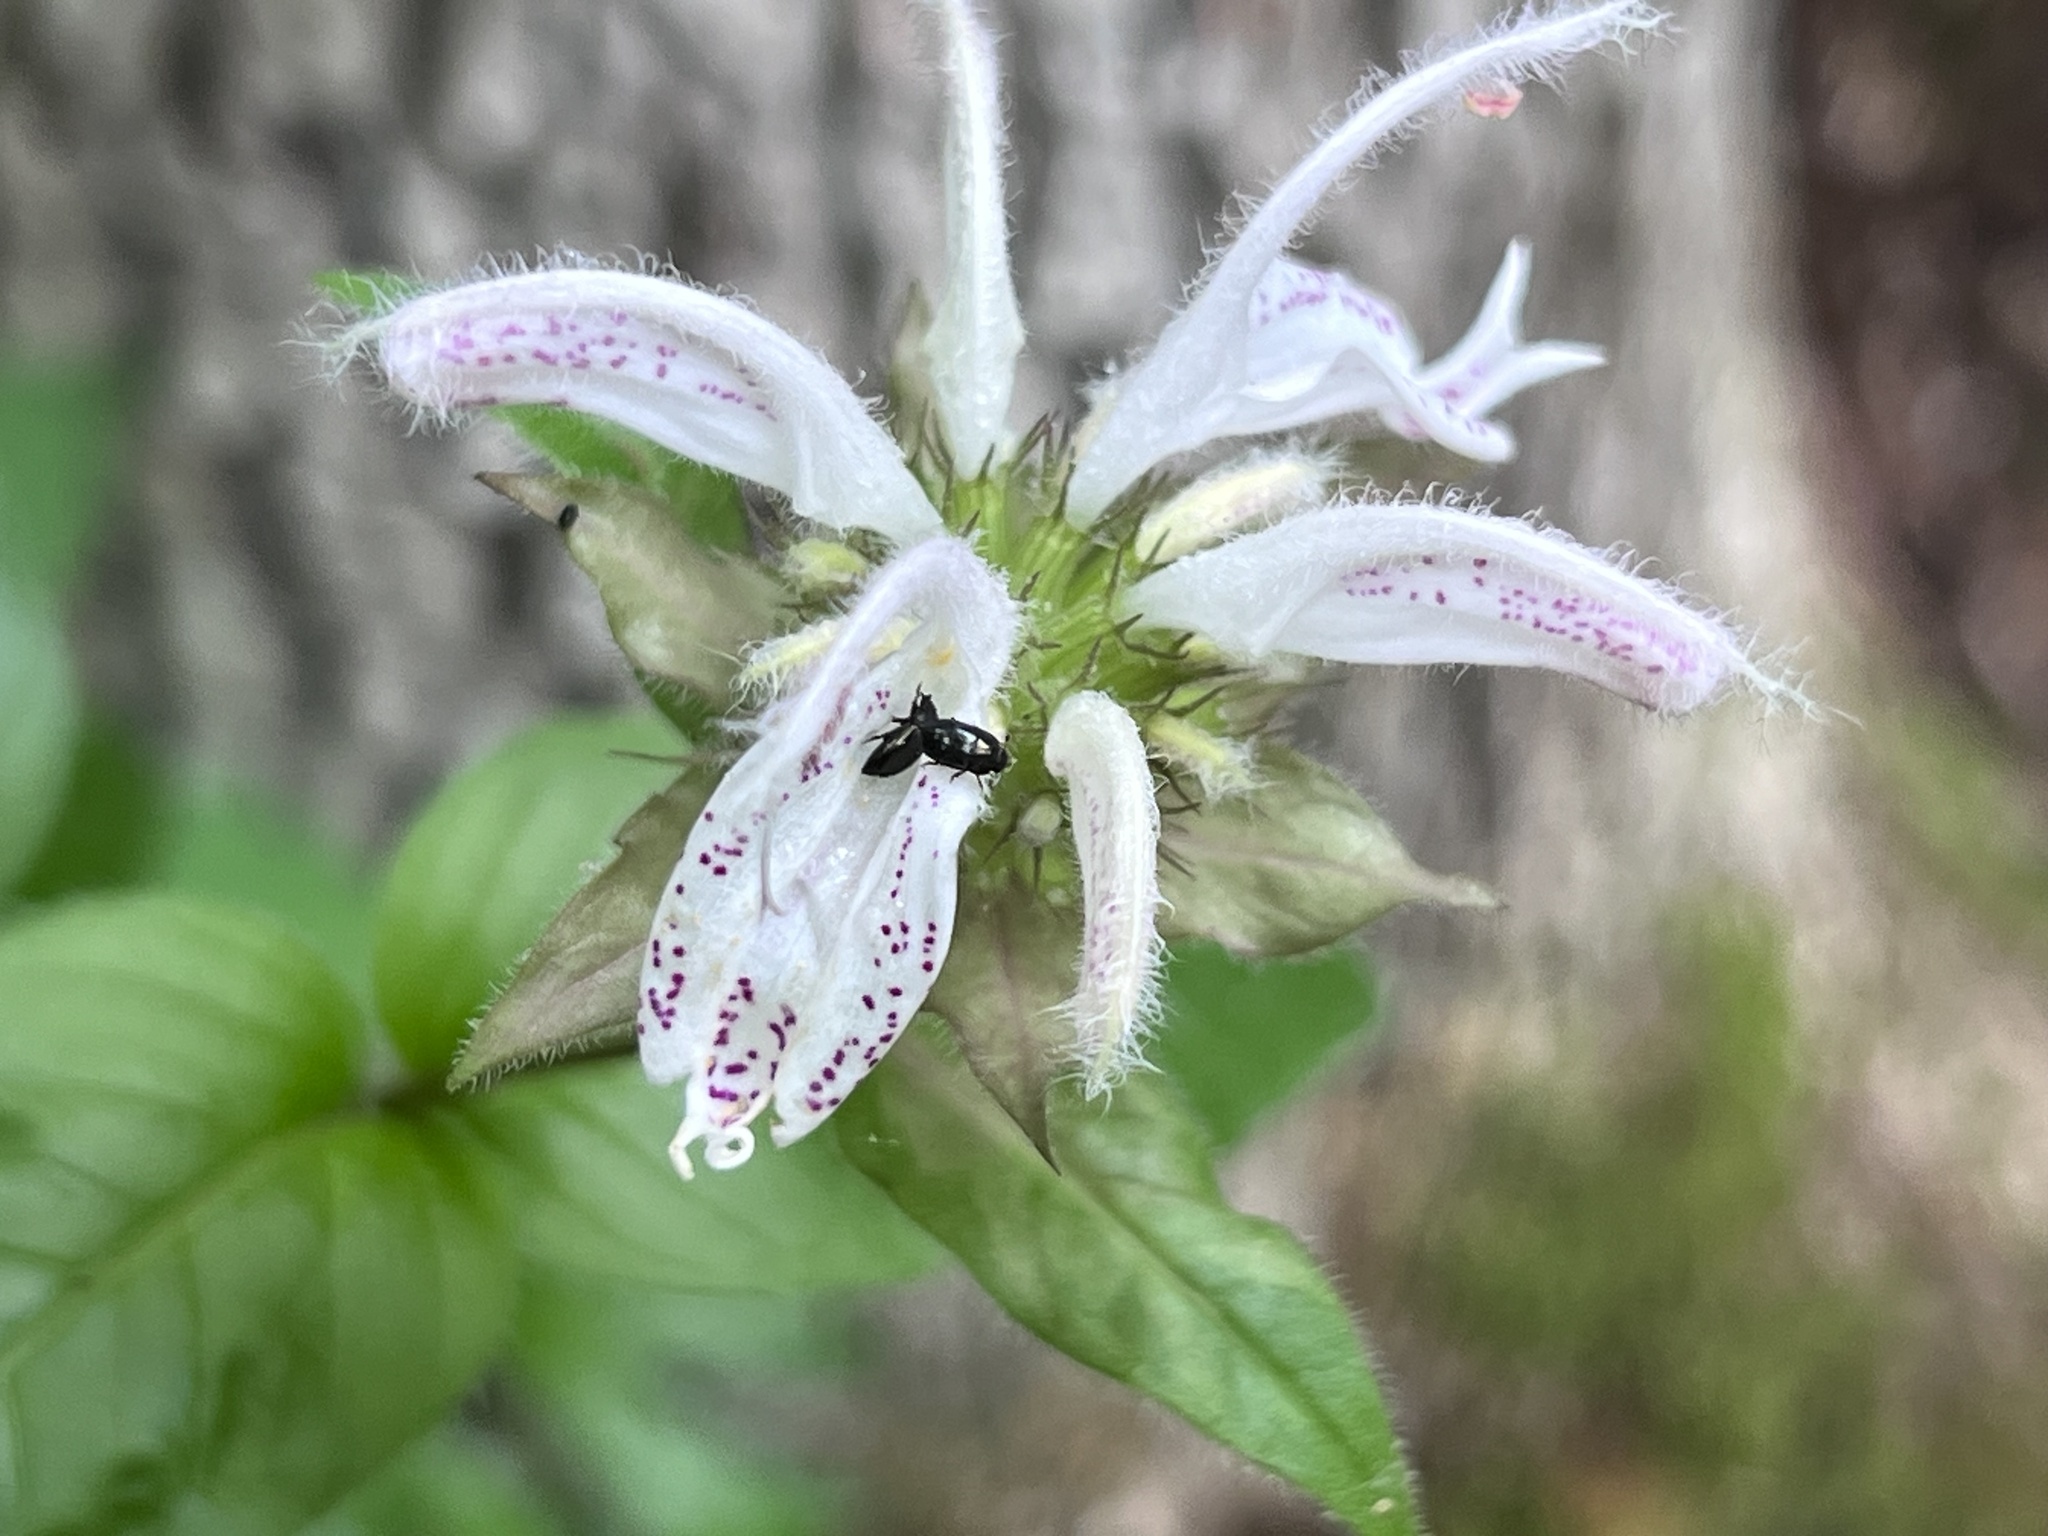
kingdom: Plantae
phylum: Tracheophyta
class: Magnoliopsida
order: Lamiales
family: Lamiaceae
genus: Monarda
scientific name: Monarda bradburiana
